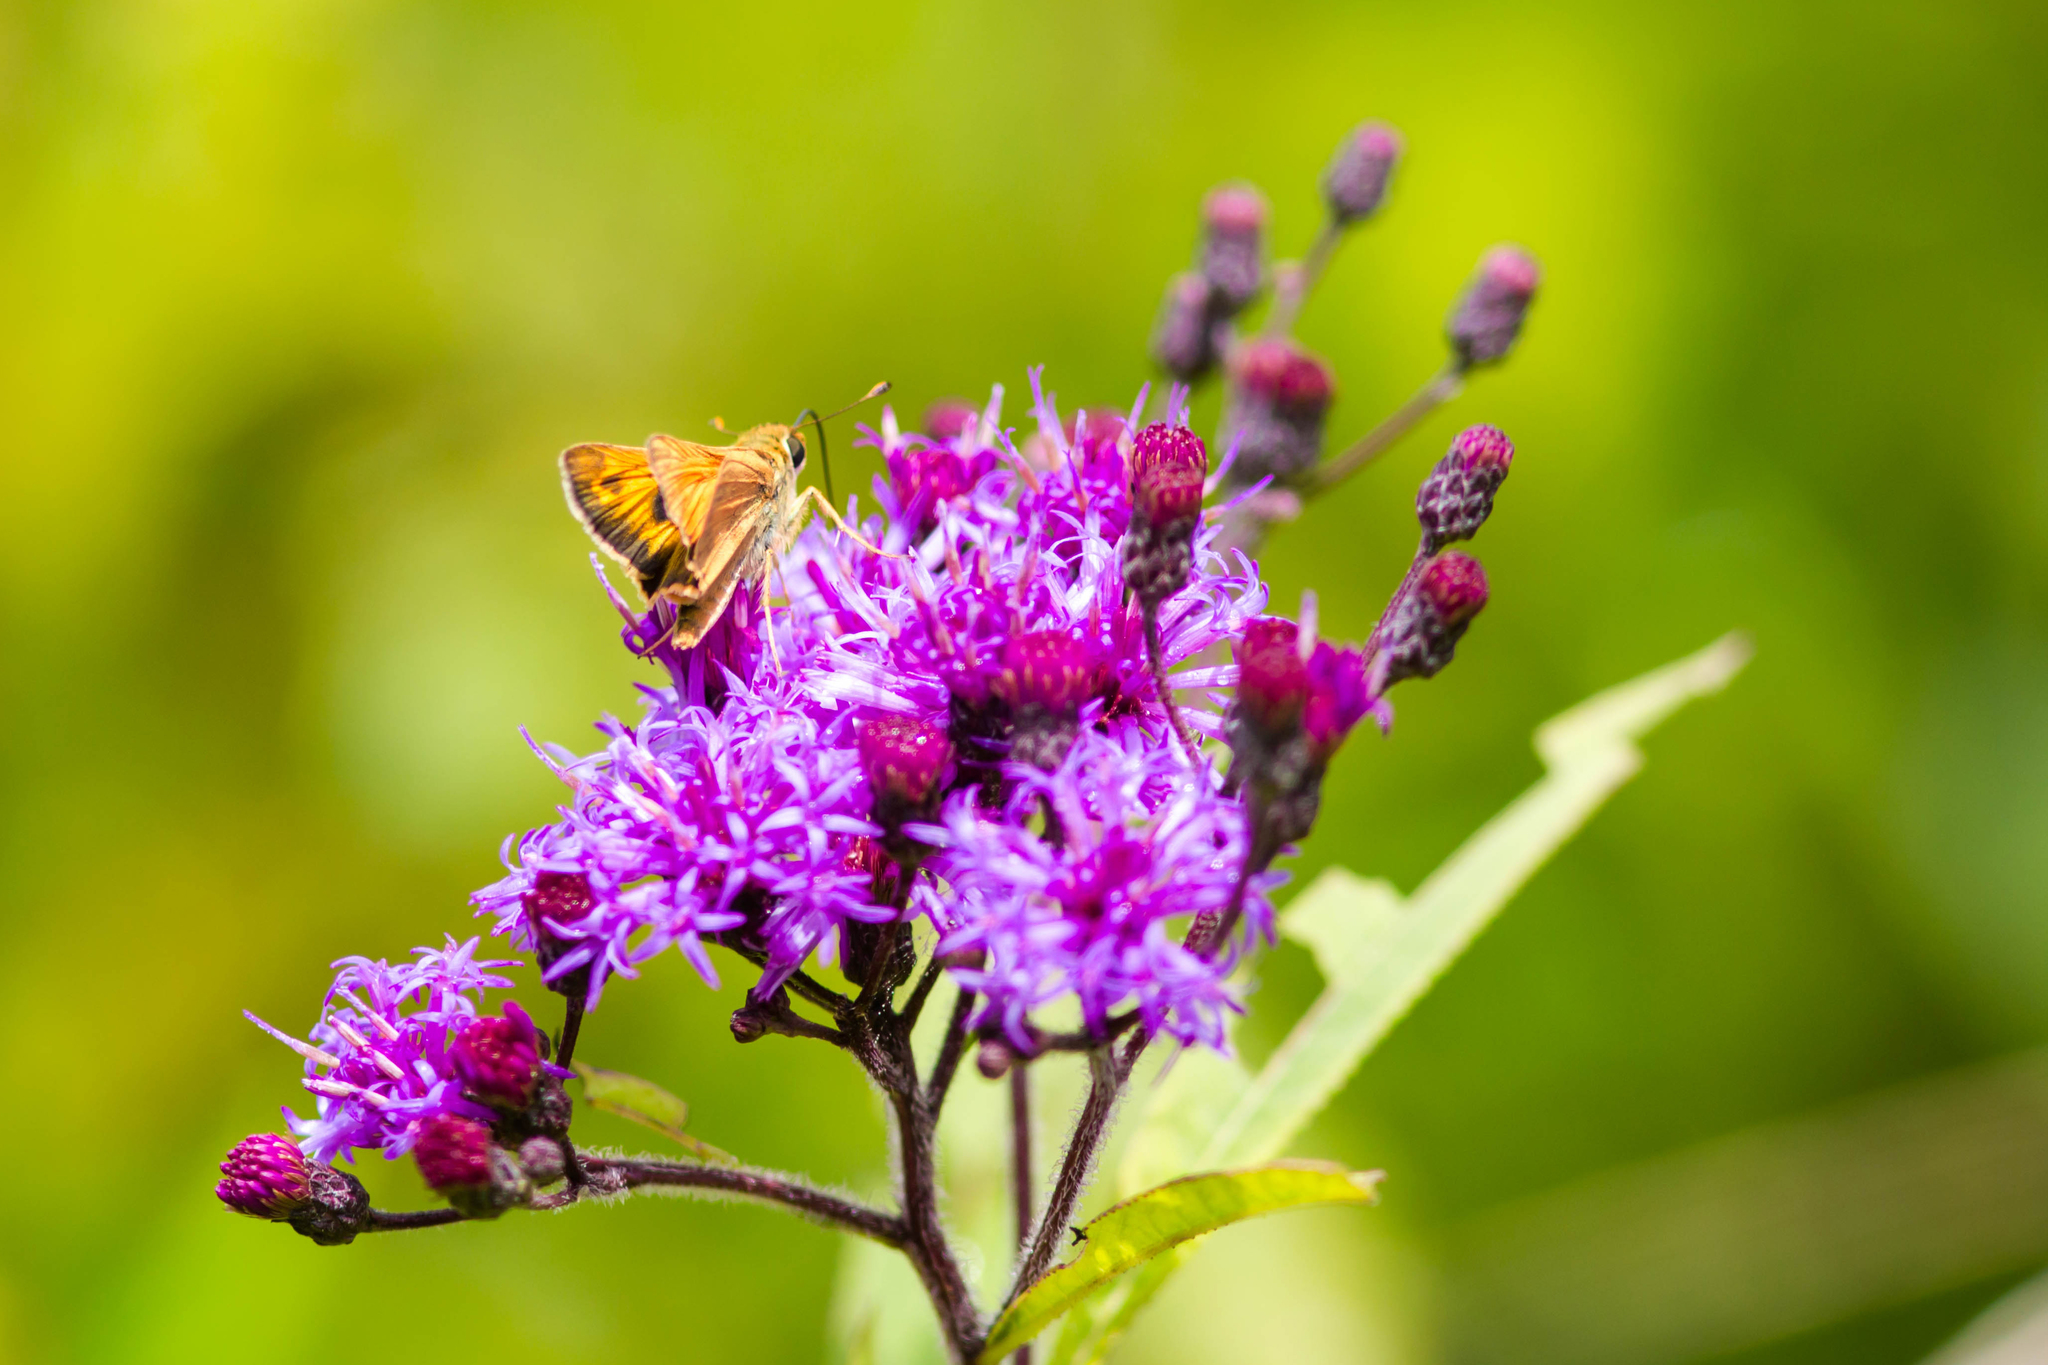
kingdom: Animalia
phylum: Arthropoda
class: Insecta
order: Lepidoptera
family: Hesperiidae
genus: Atalopedes
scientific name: Atalopedes
